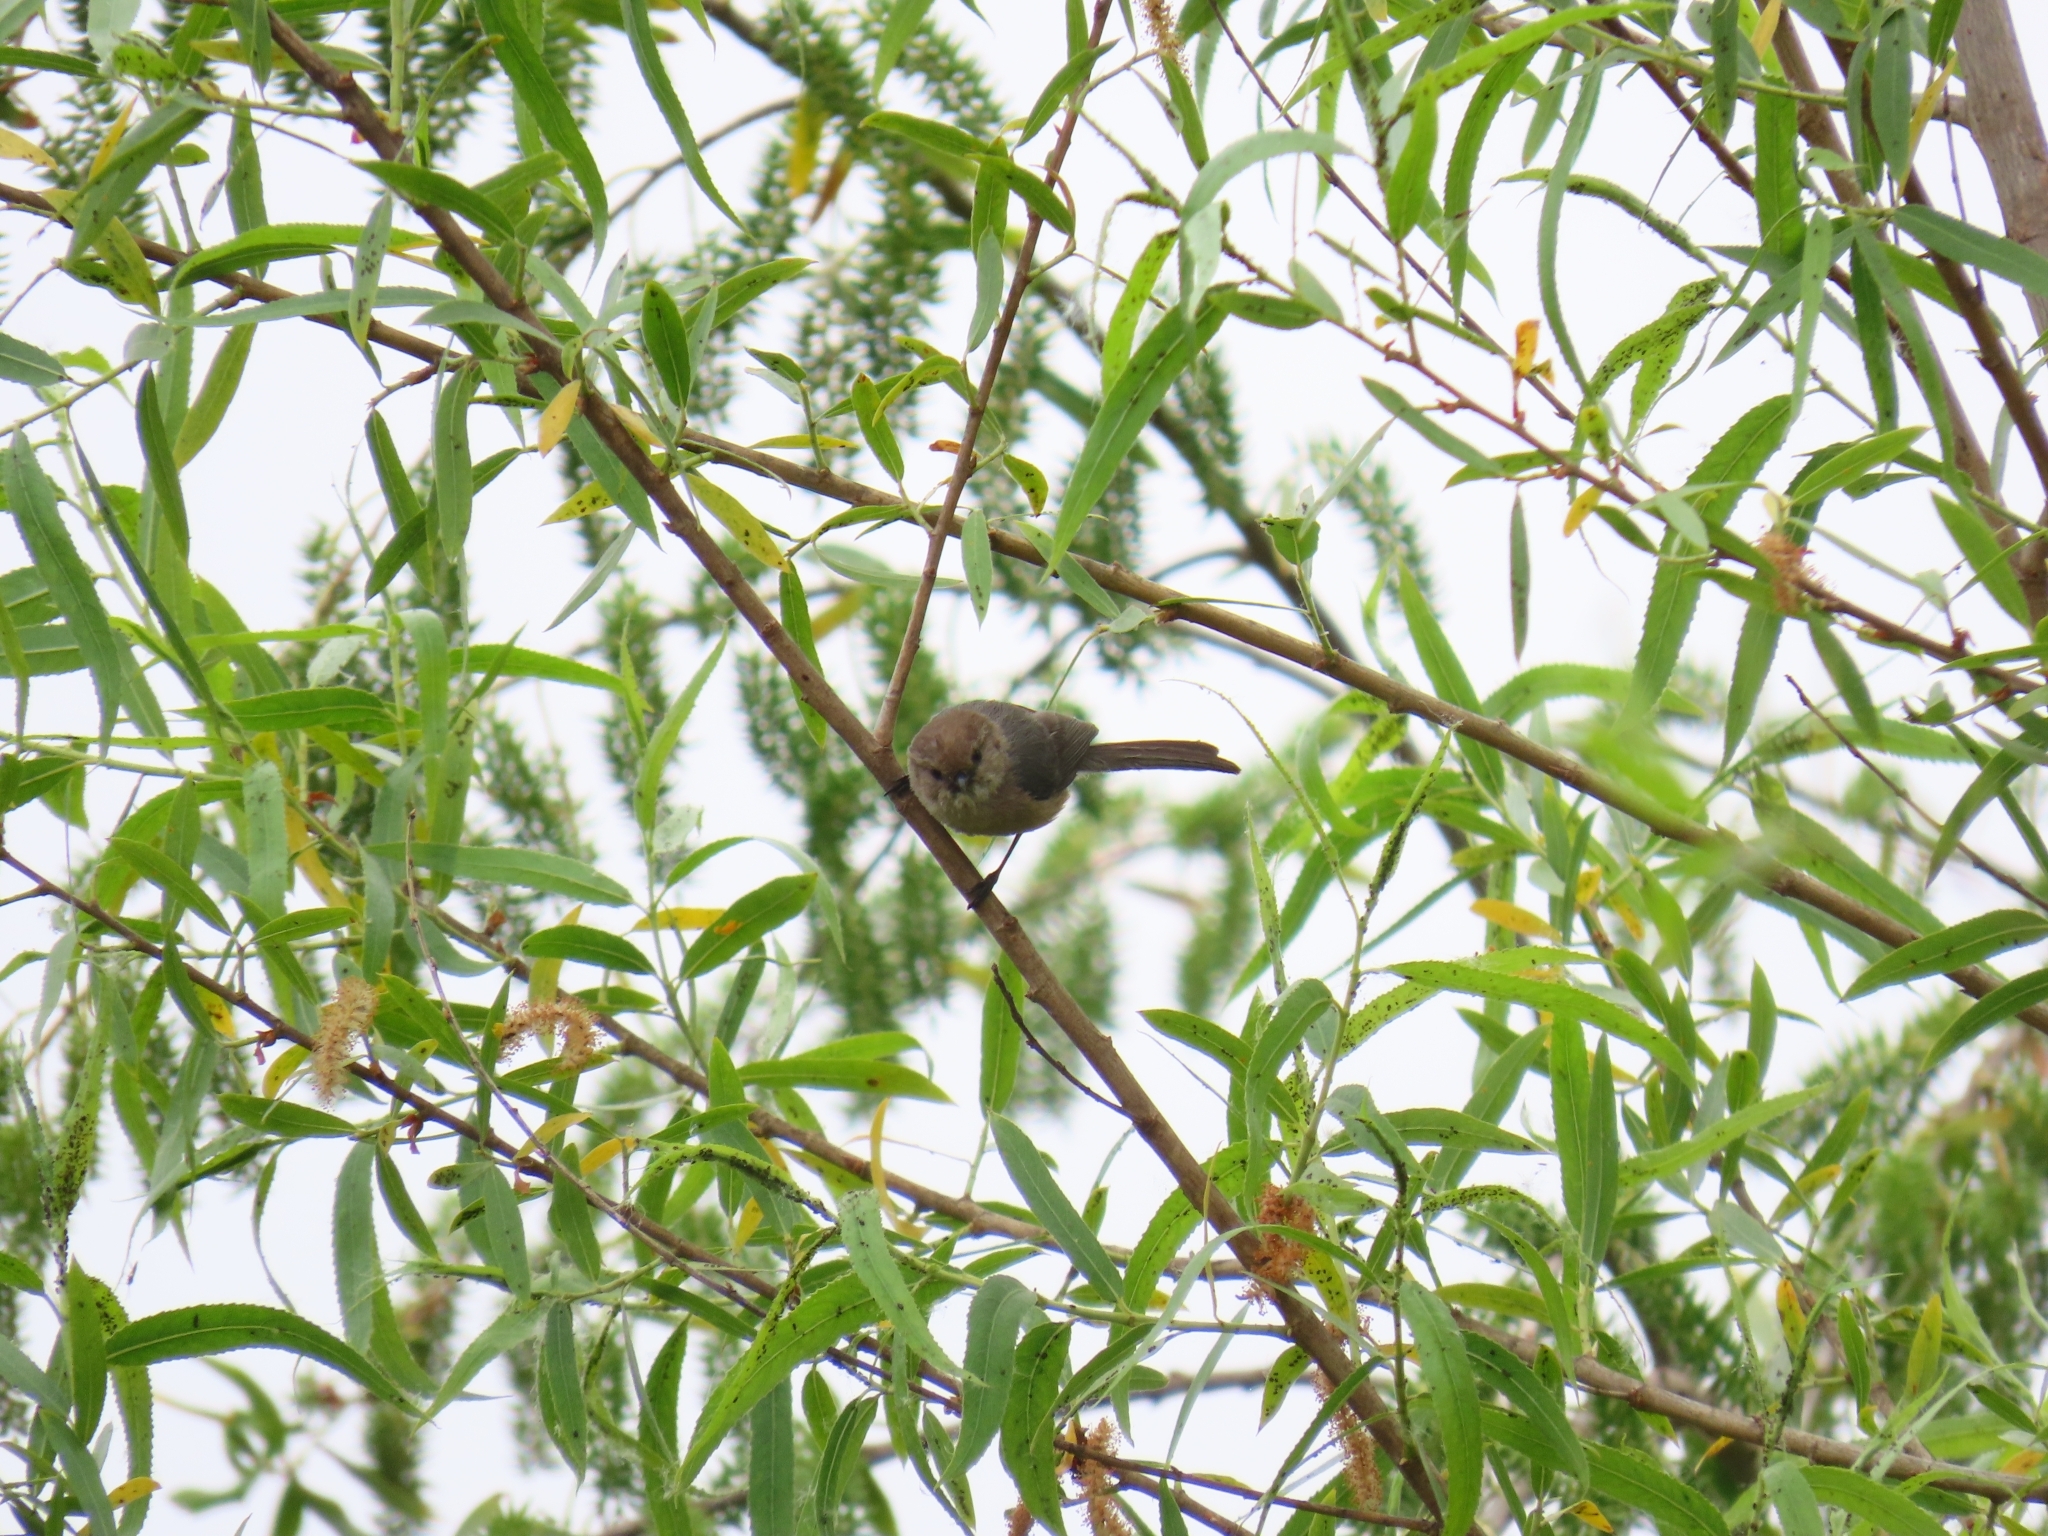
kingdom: Animalia
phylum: Chordata
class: Aves
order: Passeriformes
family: Aegithalidae
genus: Psaltriparus
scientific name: Psaltriparus minimus
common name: American bushtit
